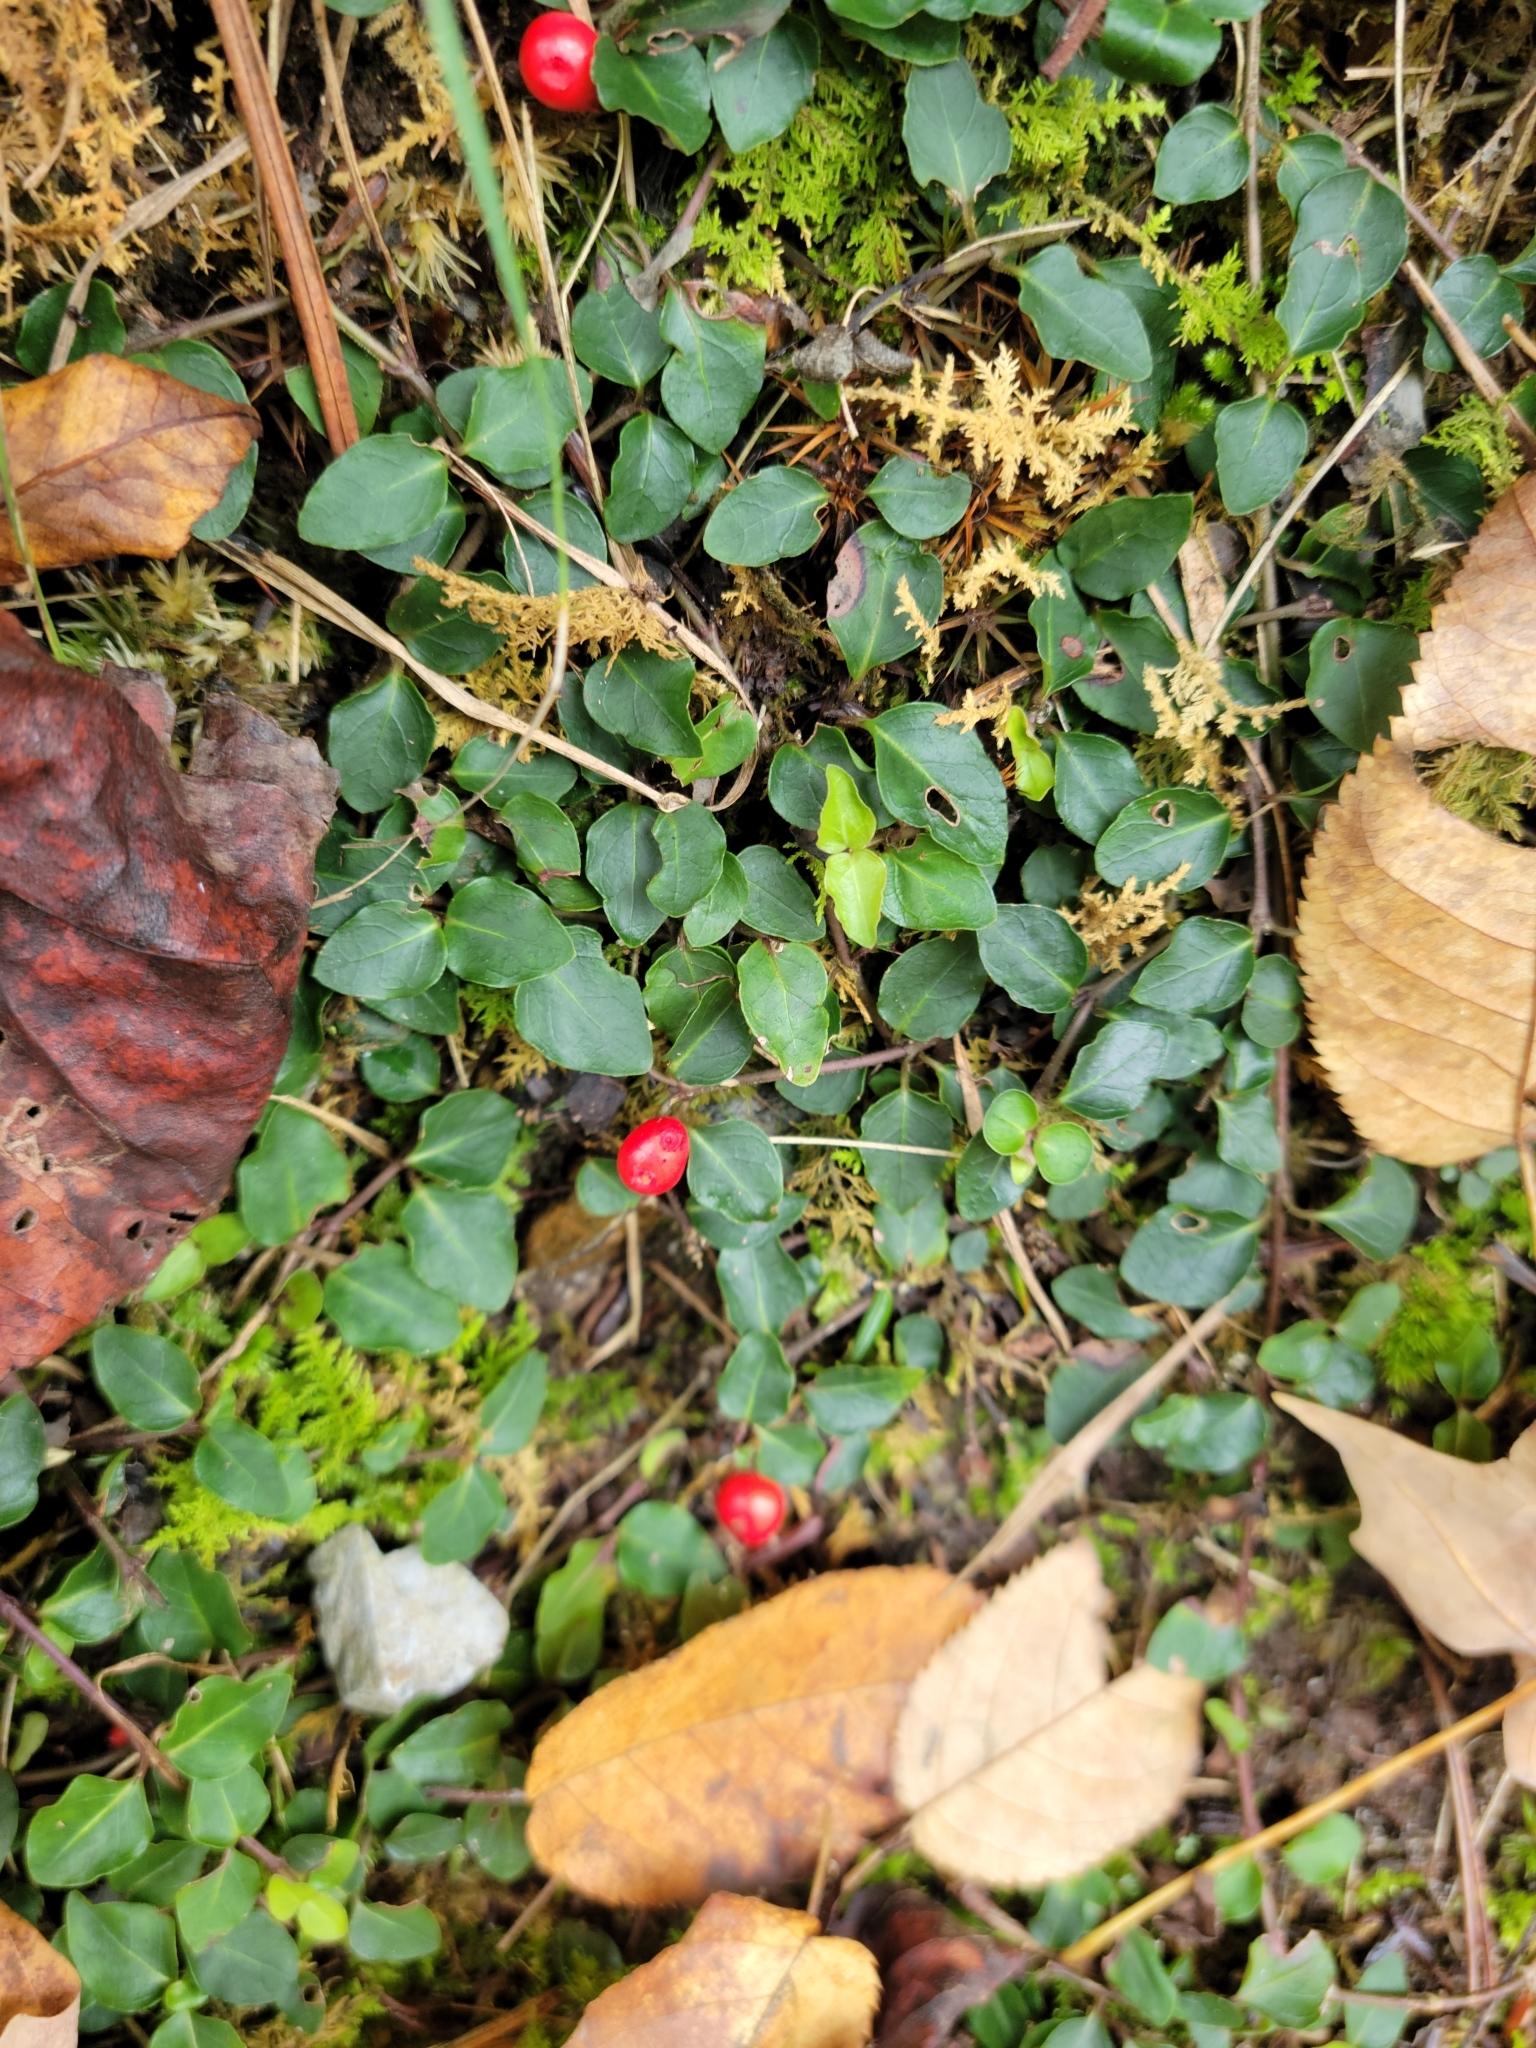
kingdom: Plantae
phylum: Tracheophyta
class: Magnoliopsida
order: Gentianales
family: Rubiaceae
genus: Mitchella
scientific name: Mitchella repens
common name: Partridge-berry
